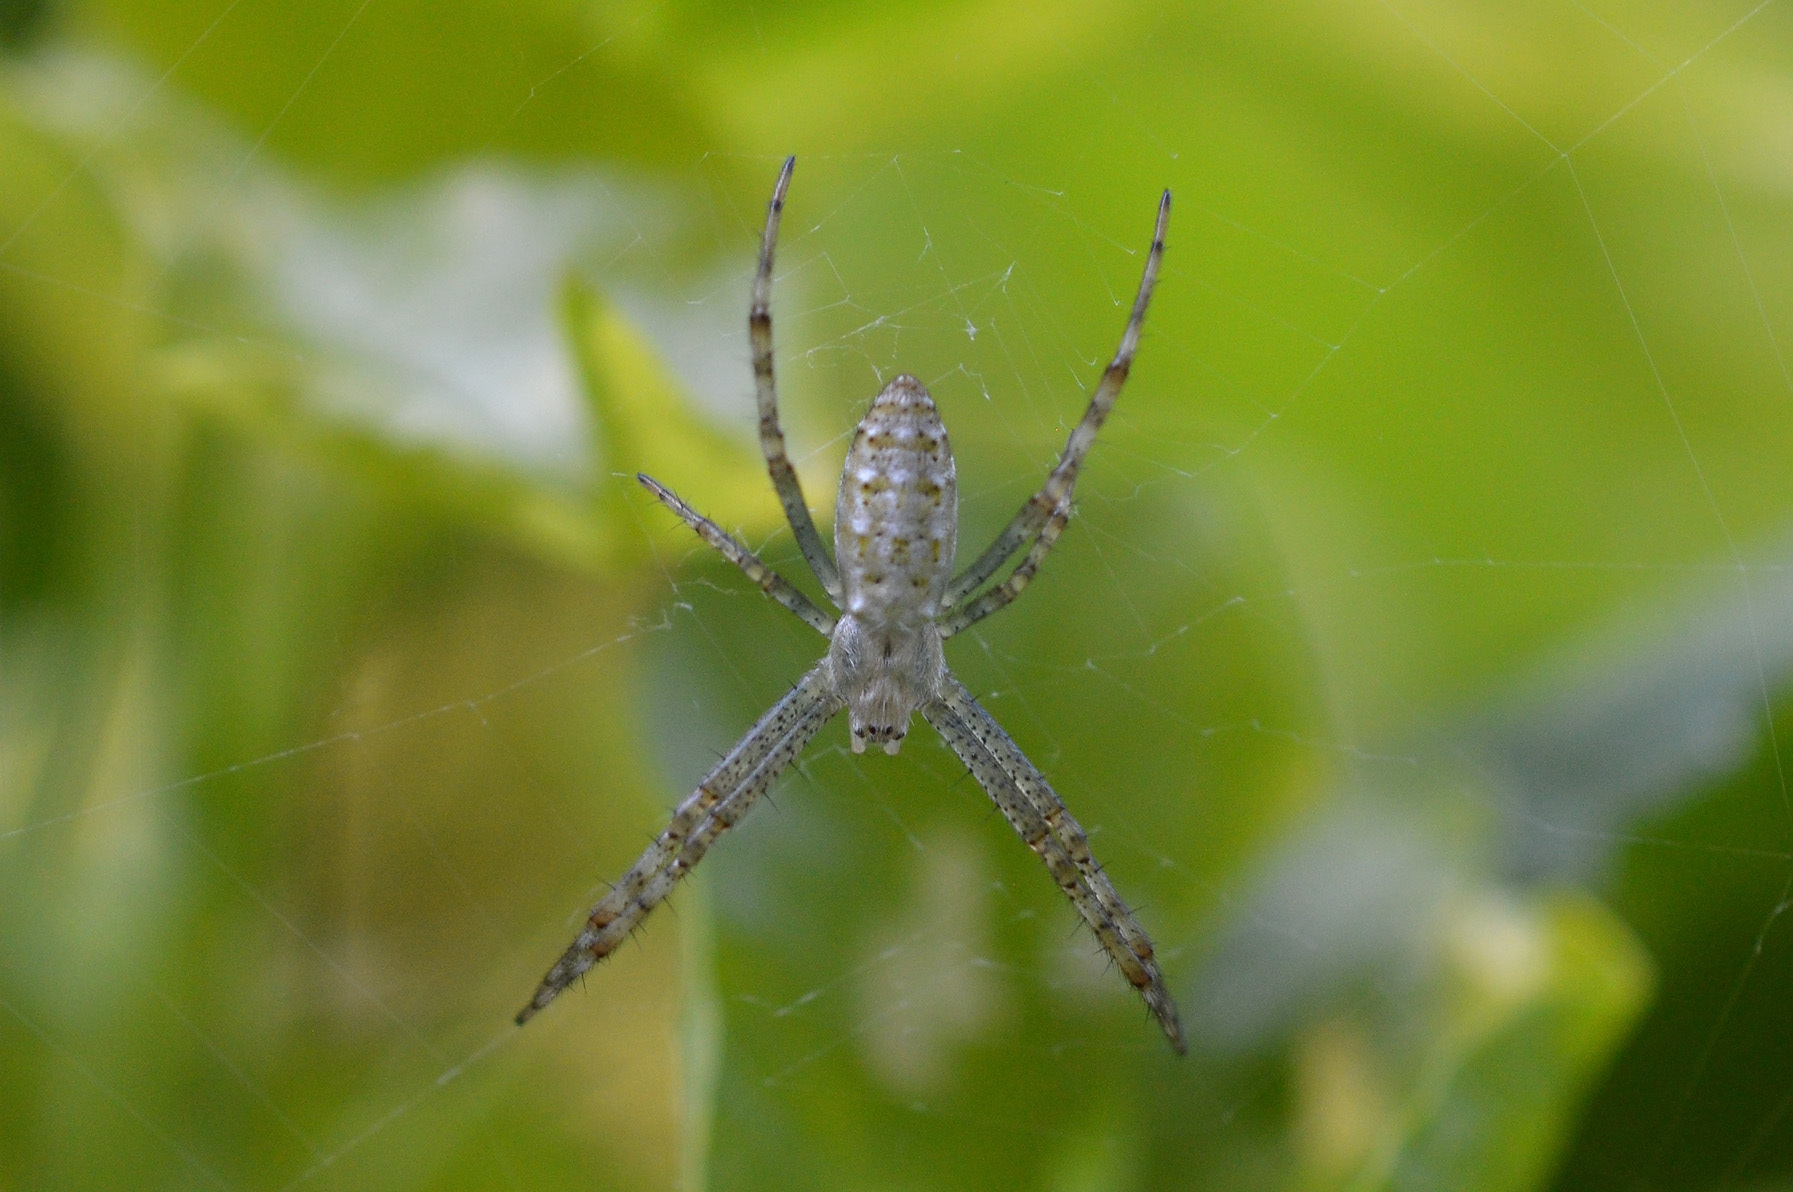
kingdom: Animalia
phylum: Arthropoda
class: Arachnida
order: Araneae
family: Araneidae
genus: Argiope
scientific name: Argiope bruennichi
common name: Wasp spider
